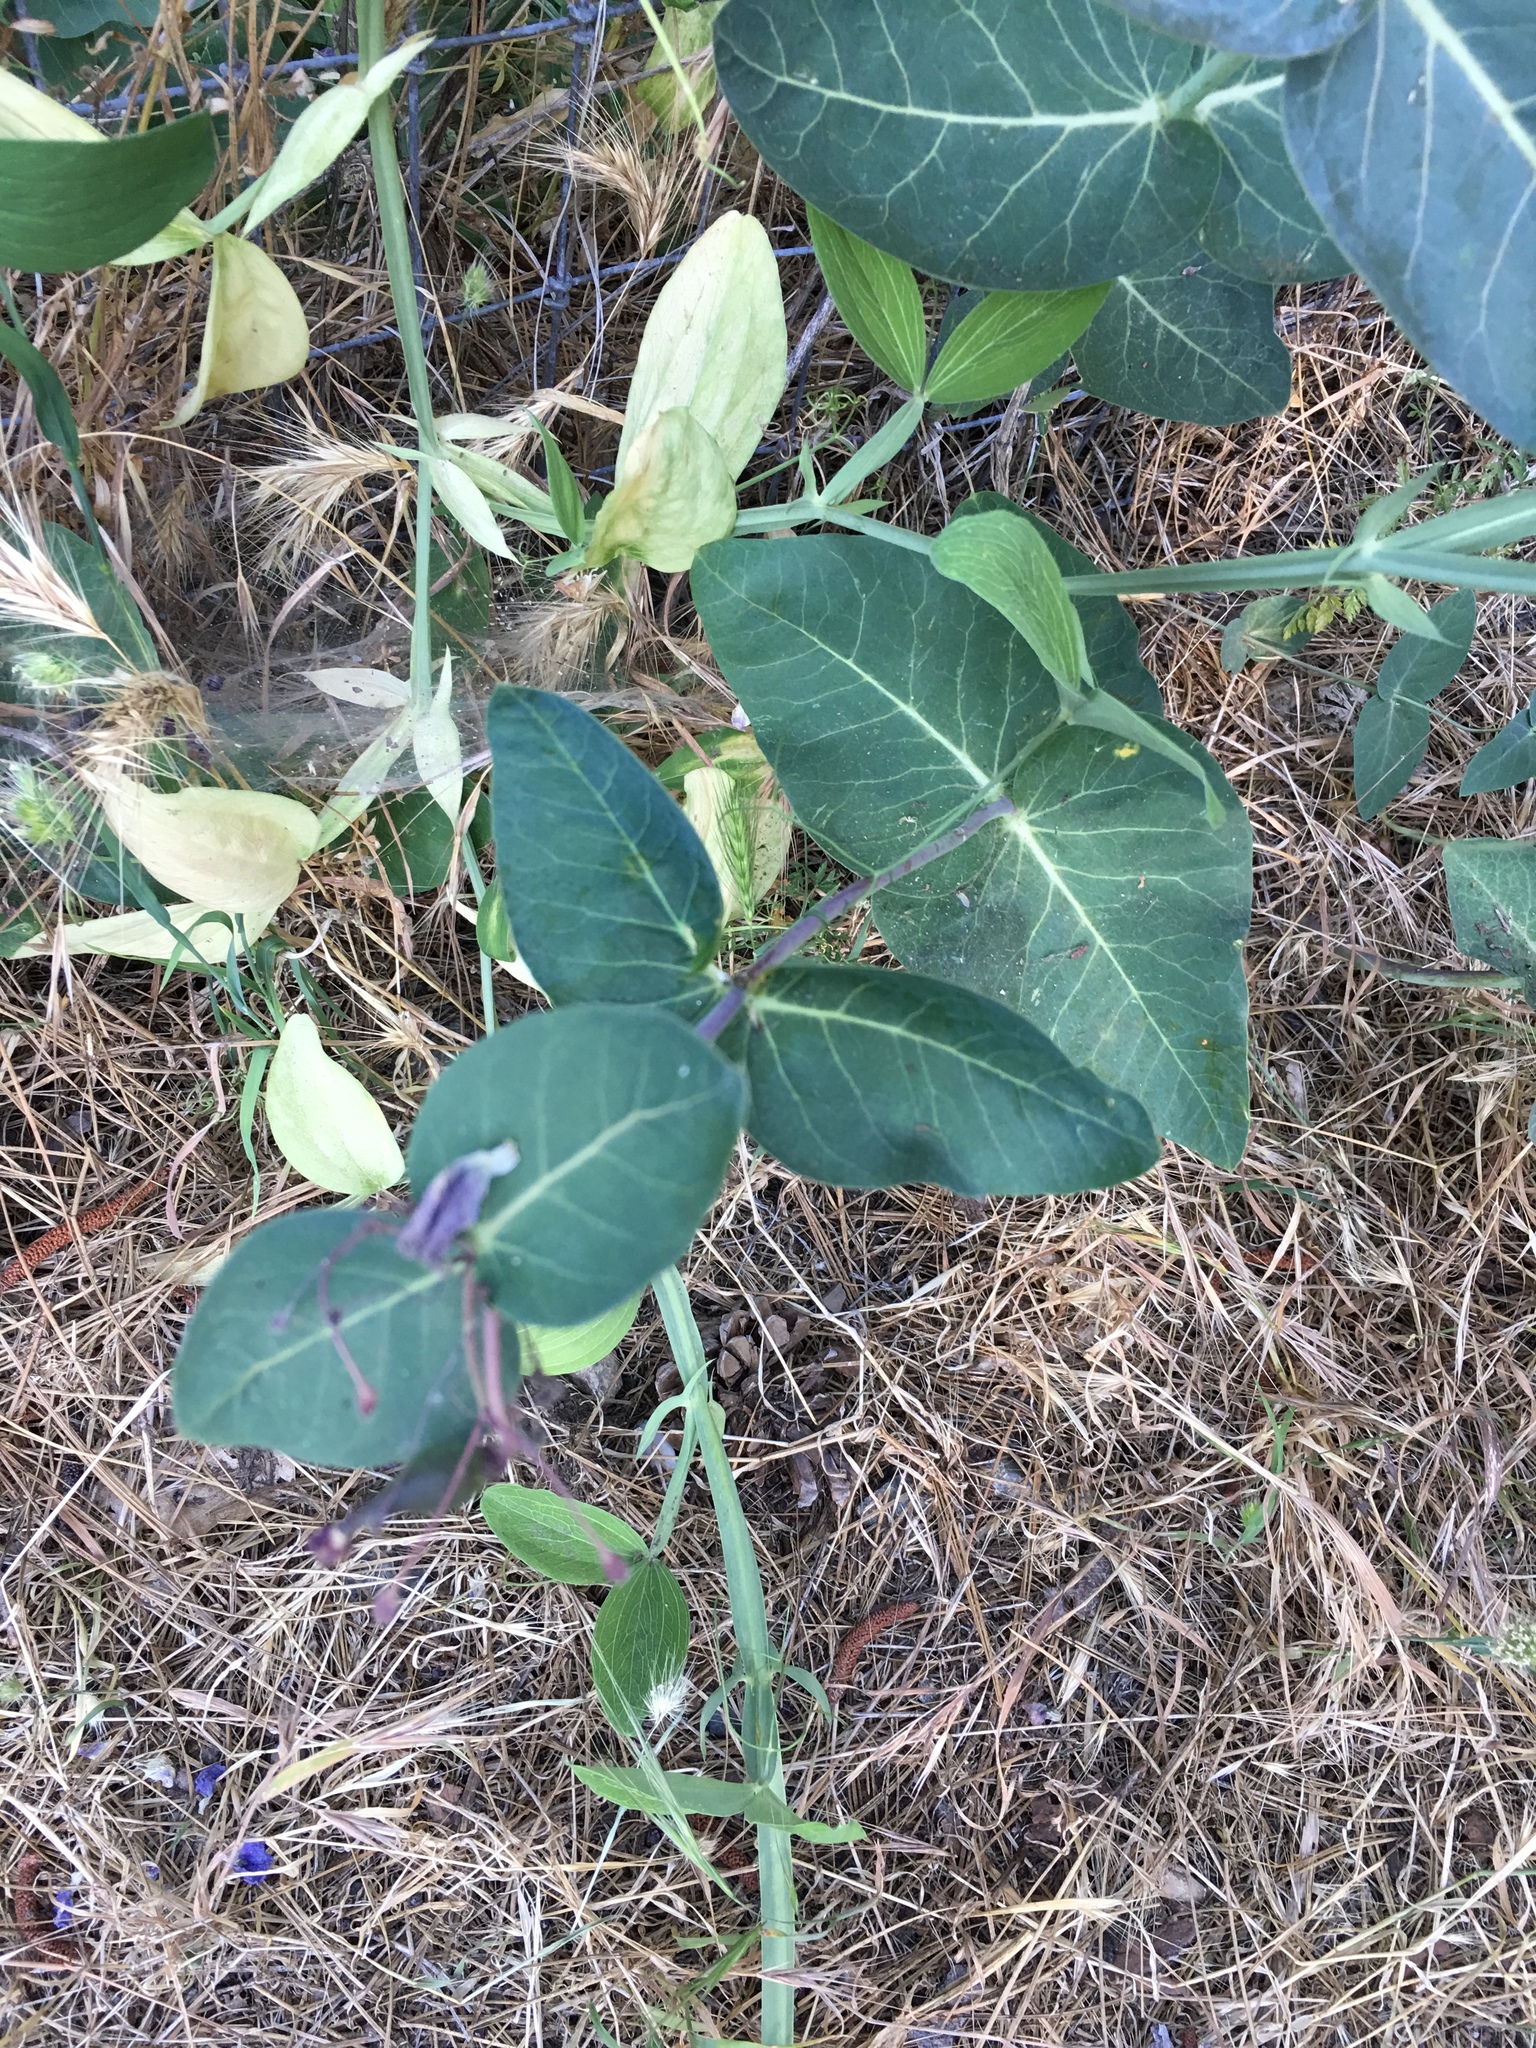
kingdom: Plantae
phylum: Tracheophyta
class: Magnoliopsida
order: Gentianales
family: Apocynaceae
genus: Asclepias
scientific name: Asclepias cordifolia
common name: Purple milkweed
